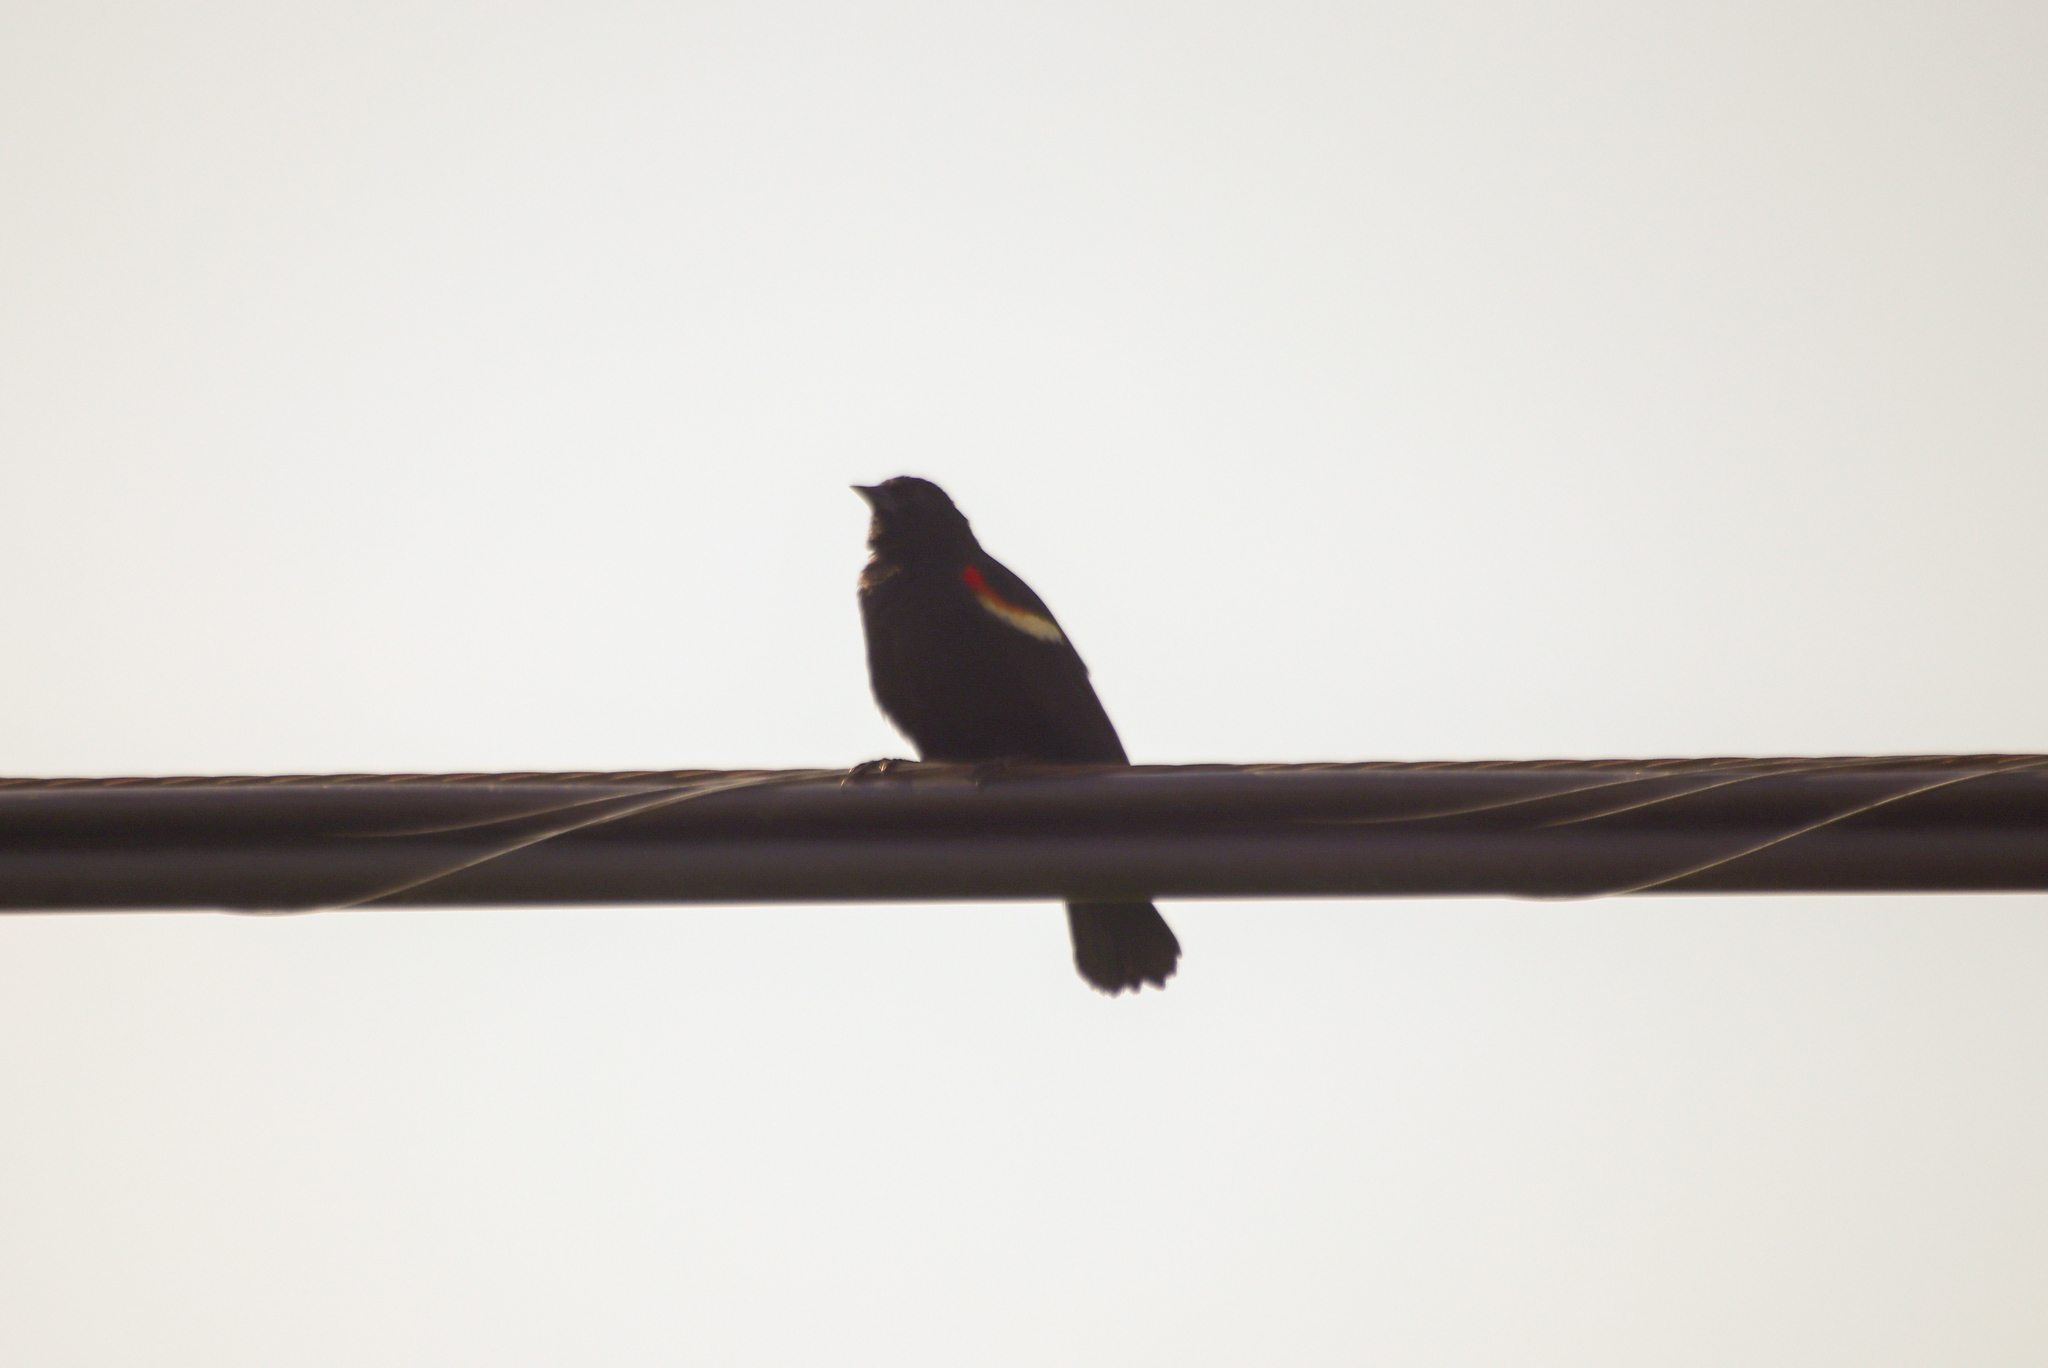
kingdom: Animalia
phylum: Chordata
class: Aves
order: Passeriformes
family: Icteridae
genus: Agelaius
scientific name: Agelaius phoeniceus
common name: Red-winged blackbird
